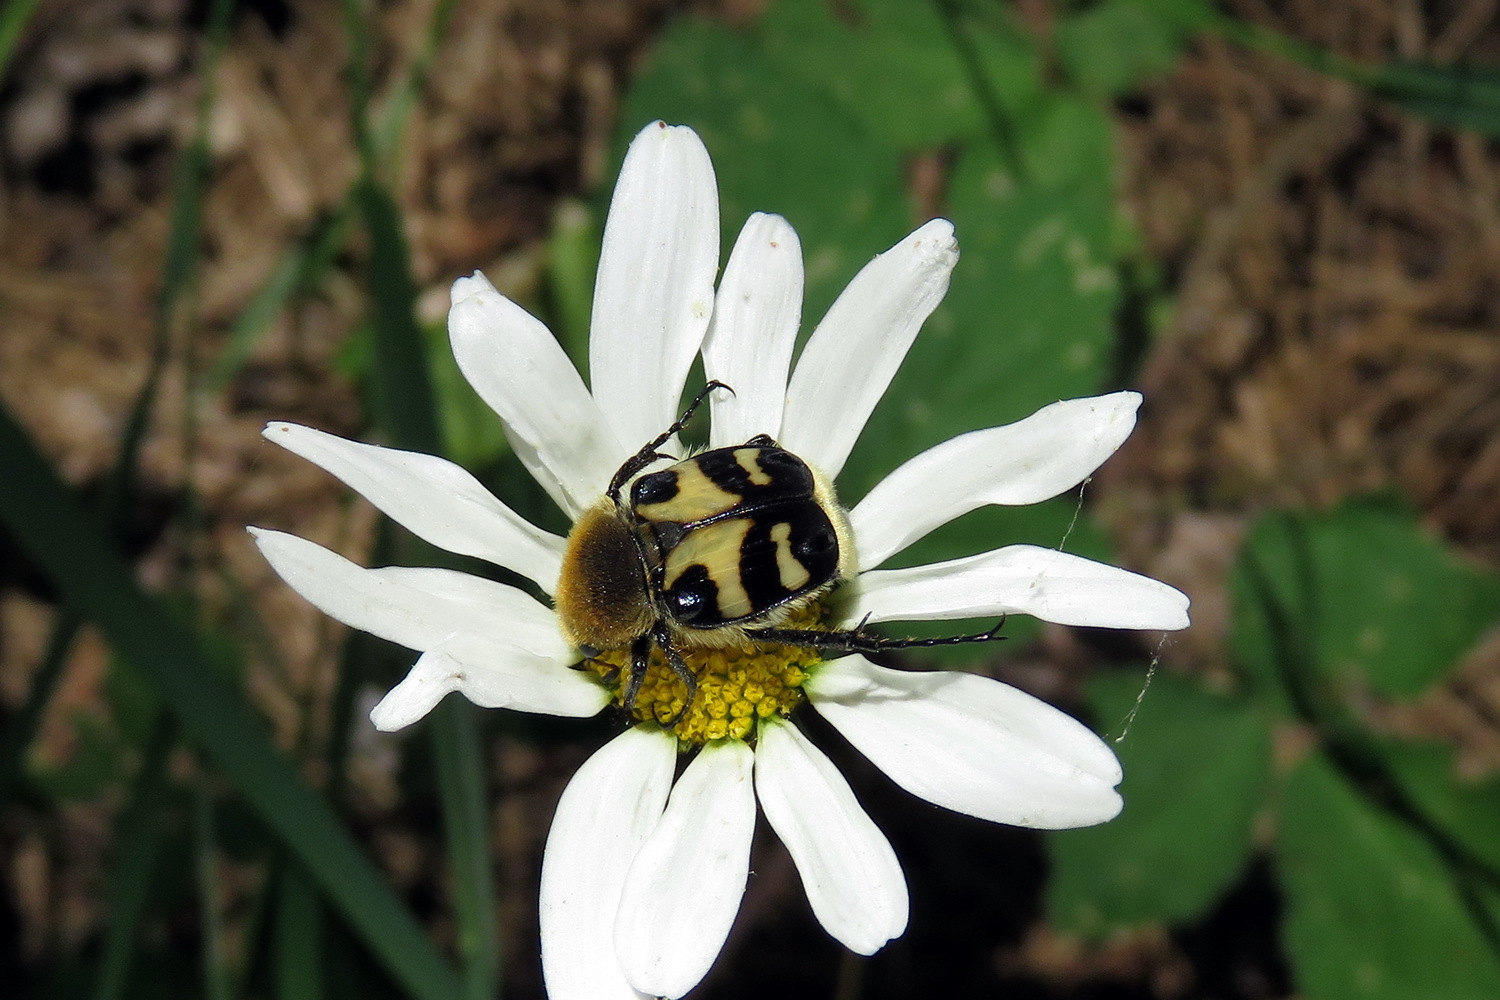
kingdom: Animalia
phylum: Arthropoda
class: Insecta
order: Coleoptera
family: Scarabaeidae
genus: Trichius
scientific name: Trichius orientalis
